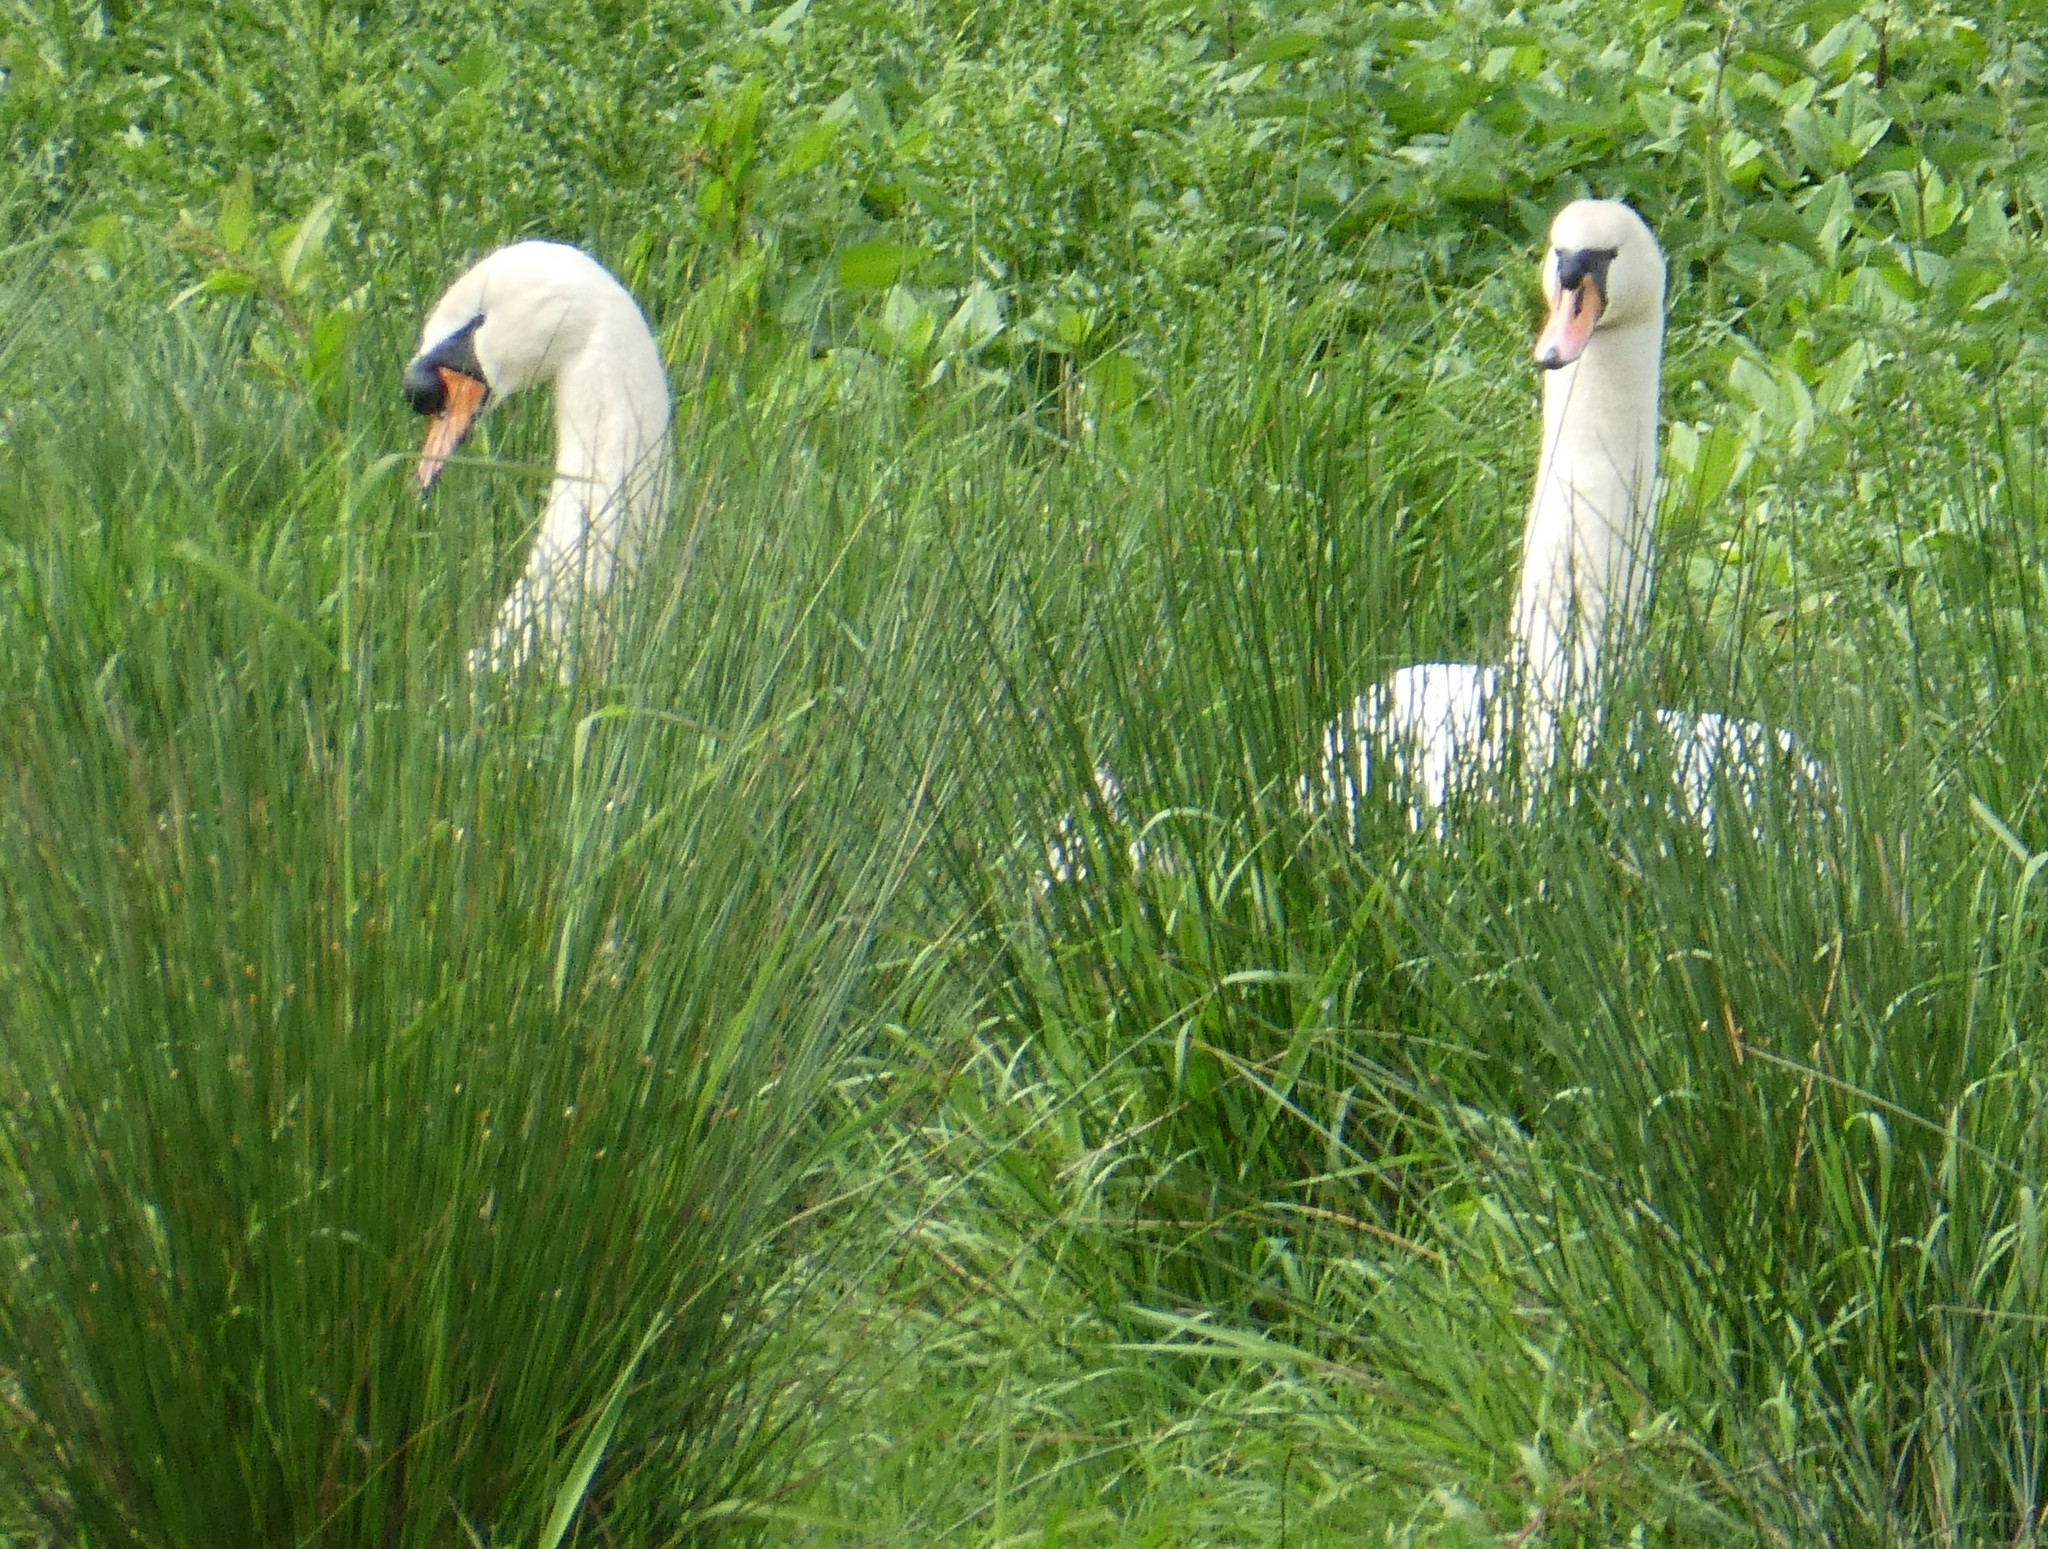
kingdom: Animalia
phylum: Chordata
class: Aves
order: Anseriformes
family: Anatidae
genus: Cygnus
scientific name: Cygnus olor
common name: Mute swan
